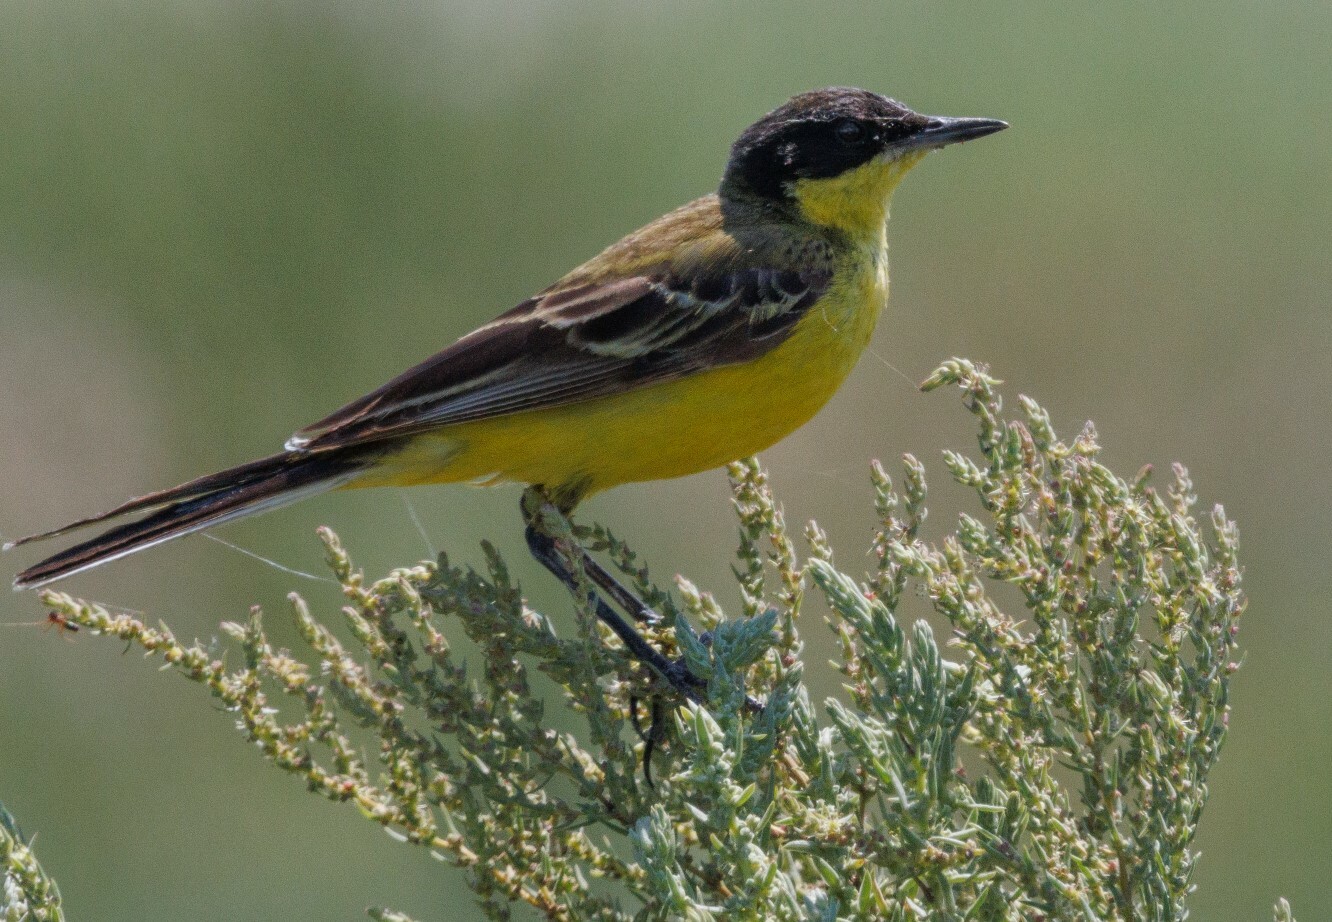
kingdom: Animalia
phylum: Chordata
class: Aves
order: Passeriformes
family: Motacillidae
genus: Motacilla
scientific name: Motacilla flava
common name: Western yellow wagtail
